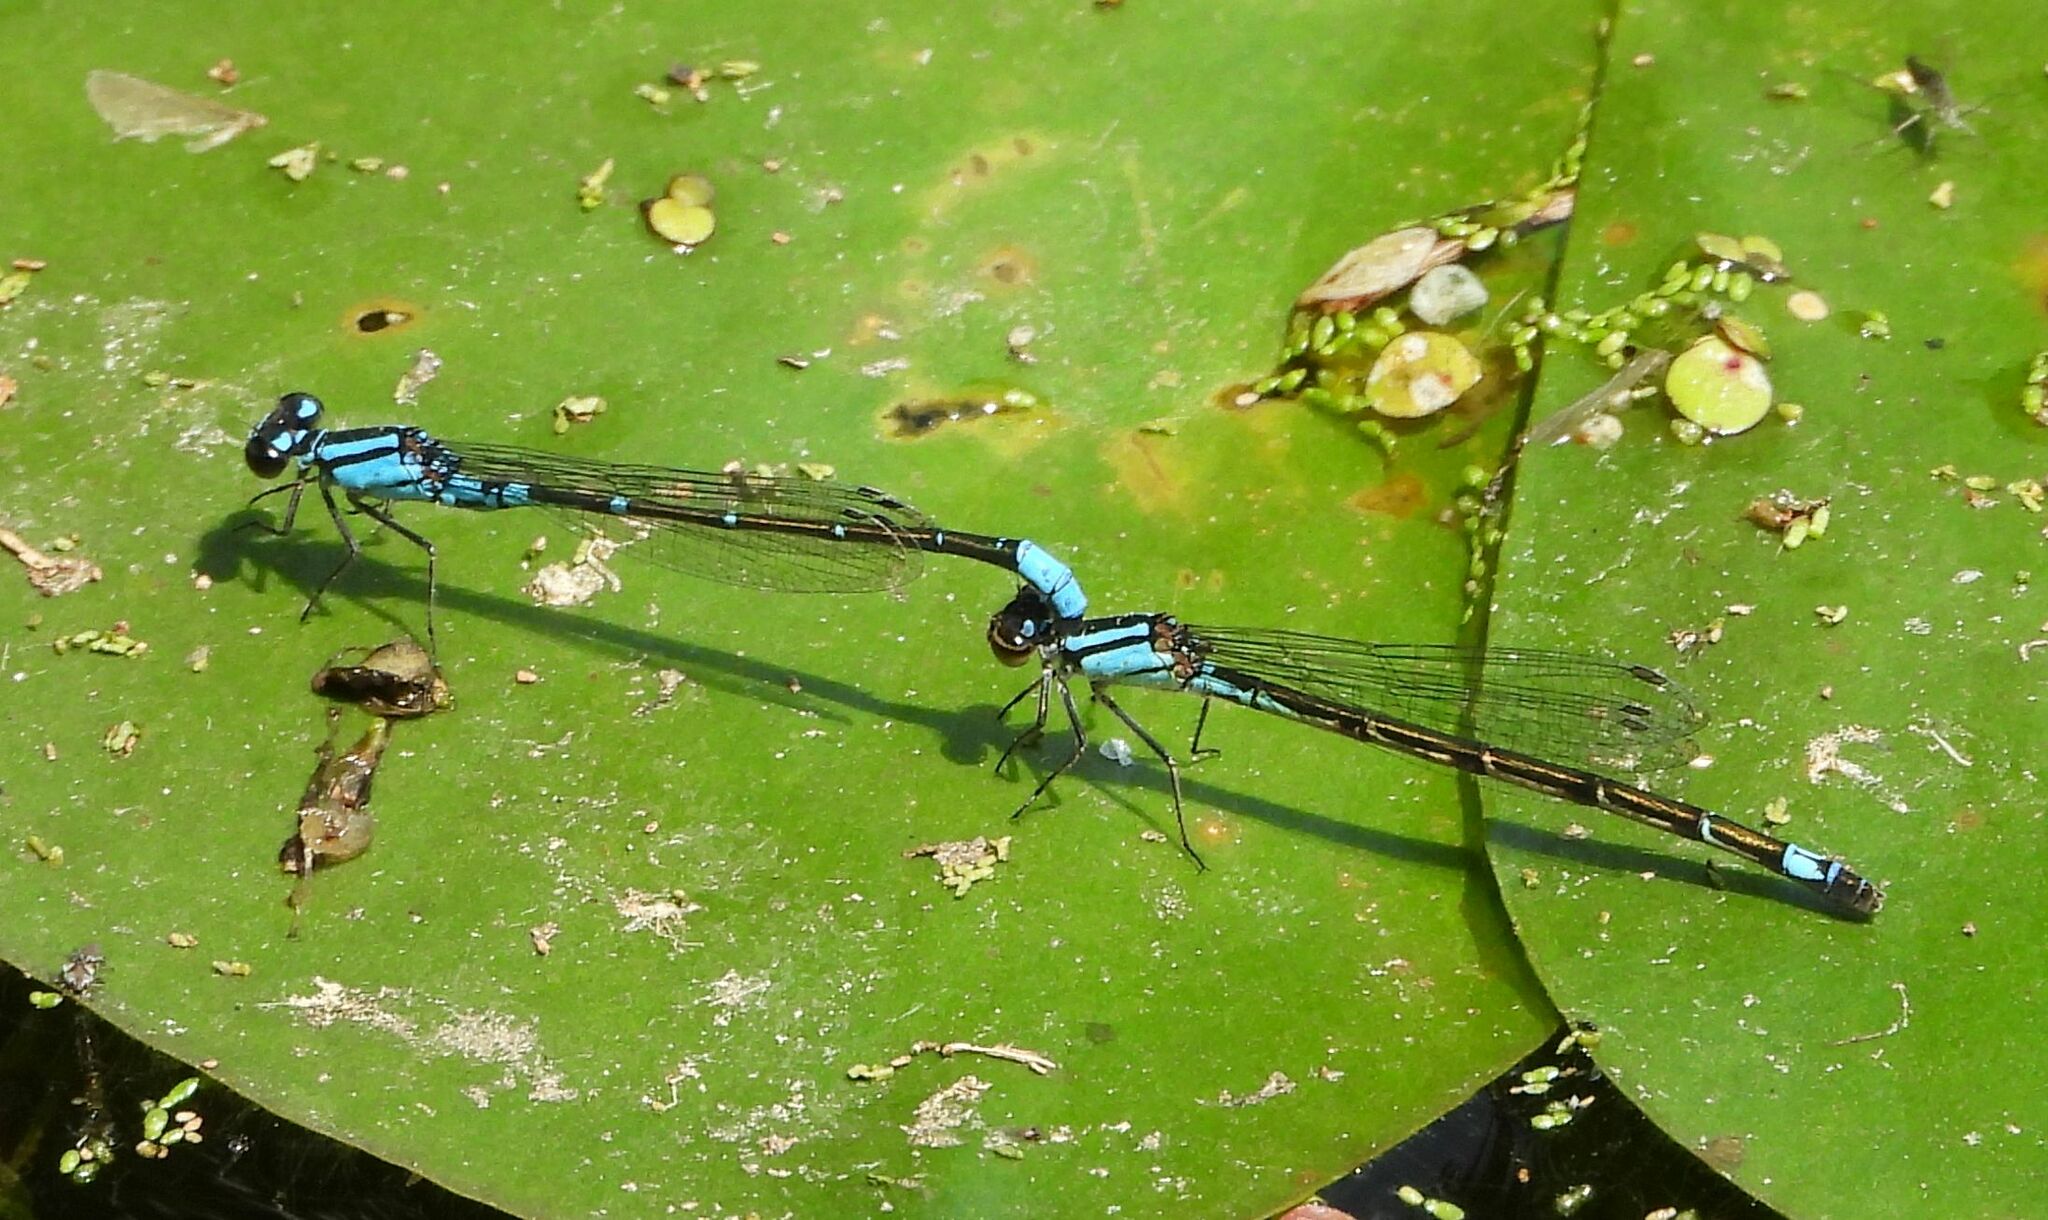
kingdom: Animalia
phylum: Arthropoda
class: Insecta
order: Odonata
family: Coenagrionidae
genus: Enallagma
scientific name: Enallagma geminatum
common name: Skimming bluet
